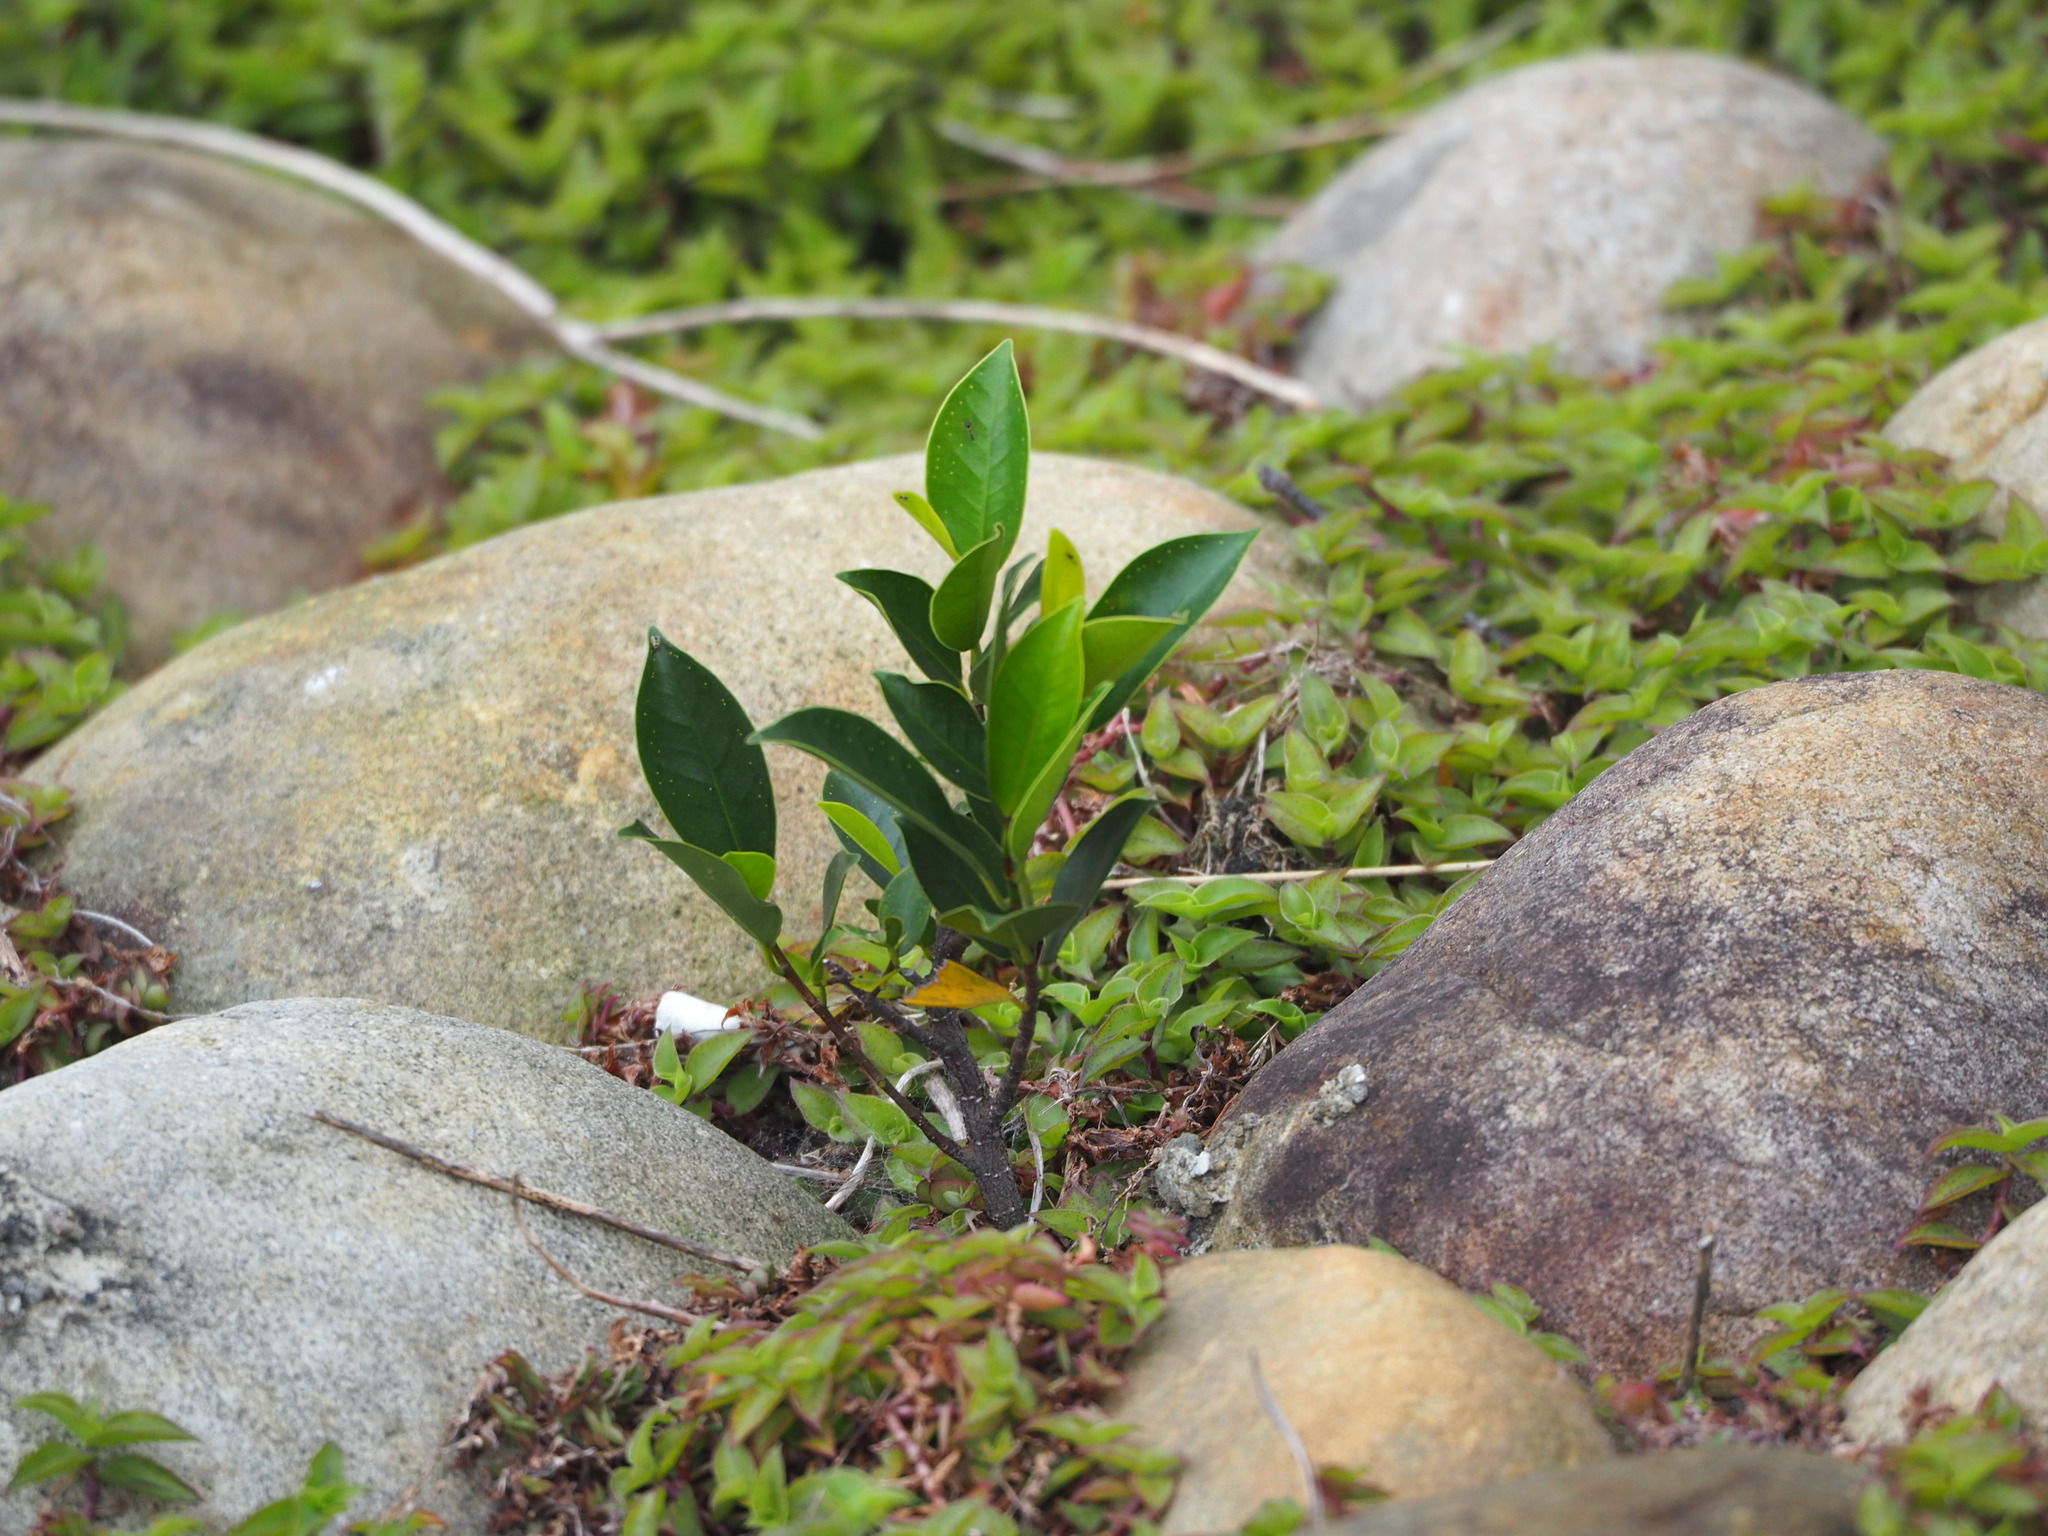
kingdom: Plantae
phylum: Tracheophyta
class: Magnoliopsida
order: Rosales
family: Moraceae
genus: Ficus
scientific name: Ficus microcarpa
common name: Chinese banyan
